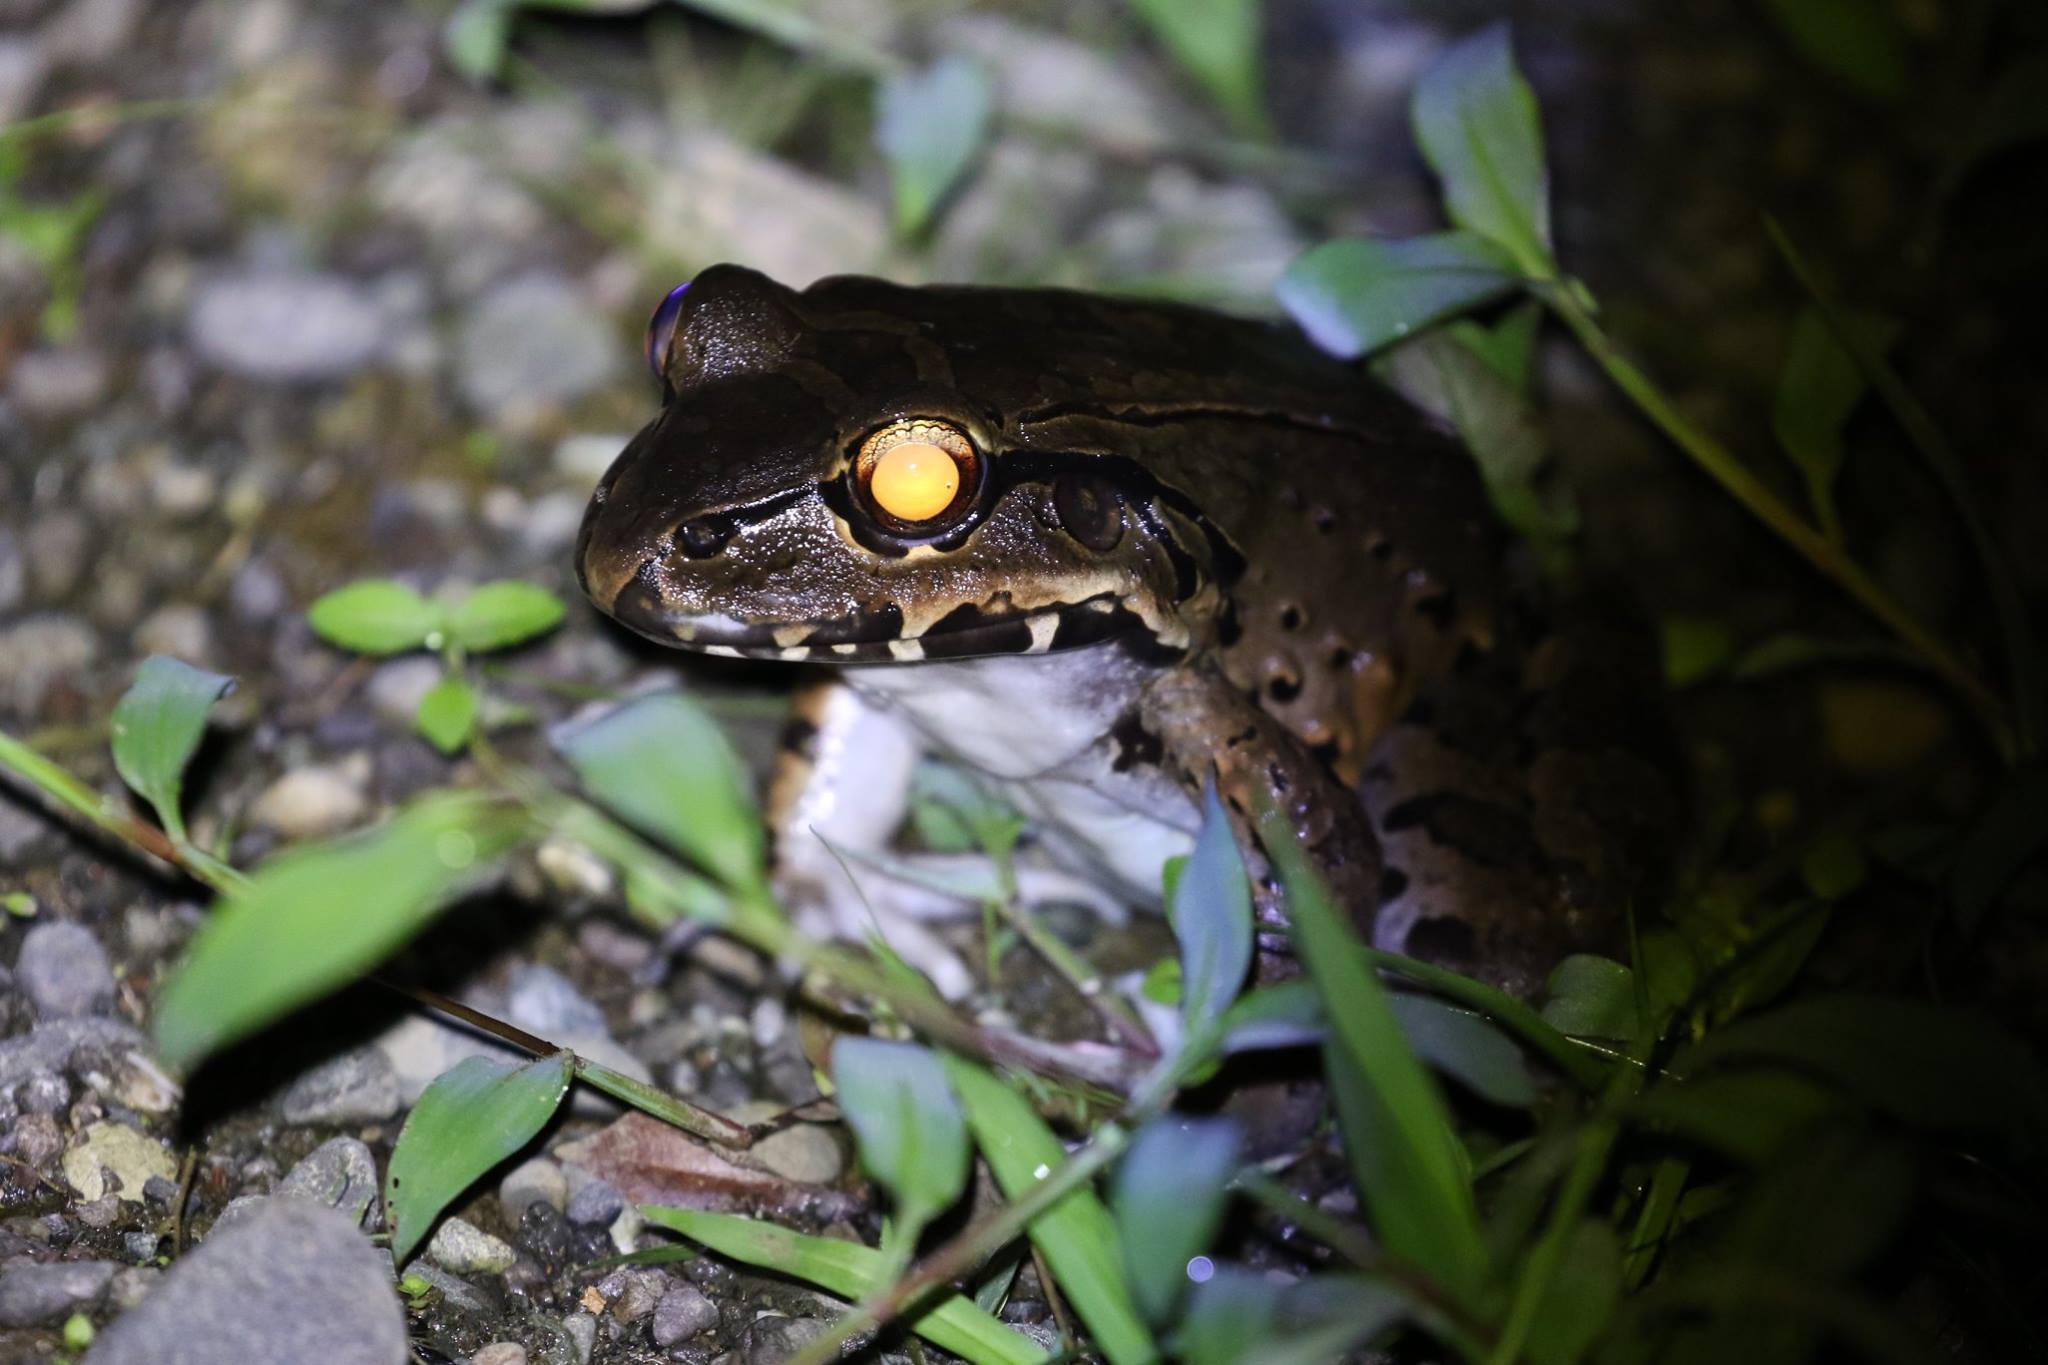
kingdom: Animalia
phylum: Chordata
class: Amphibia
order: Anura
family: Leptodactylidae
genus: Leptodactylus
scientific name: Leptodactylus savagei
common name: Savage's thin-toed frog
